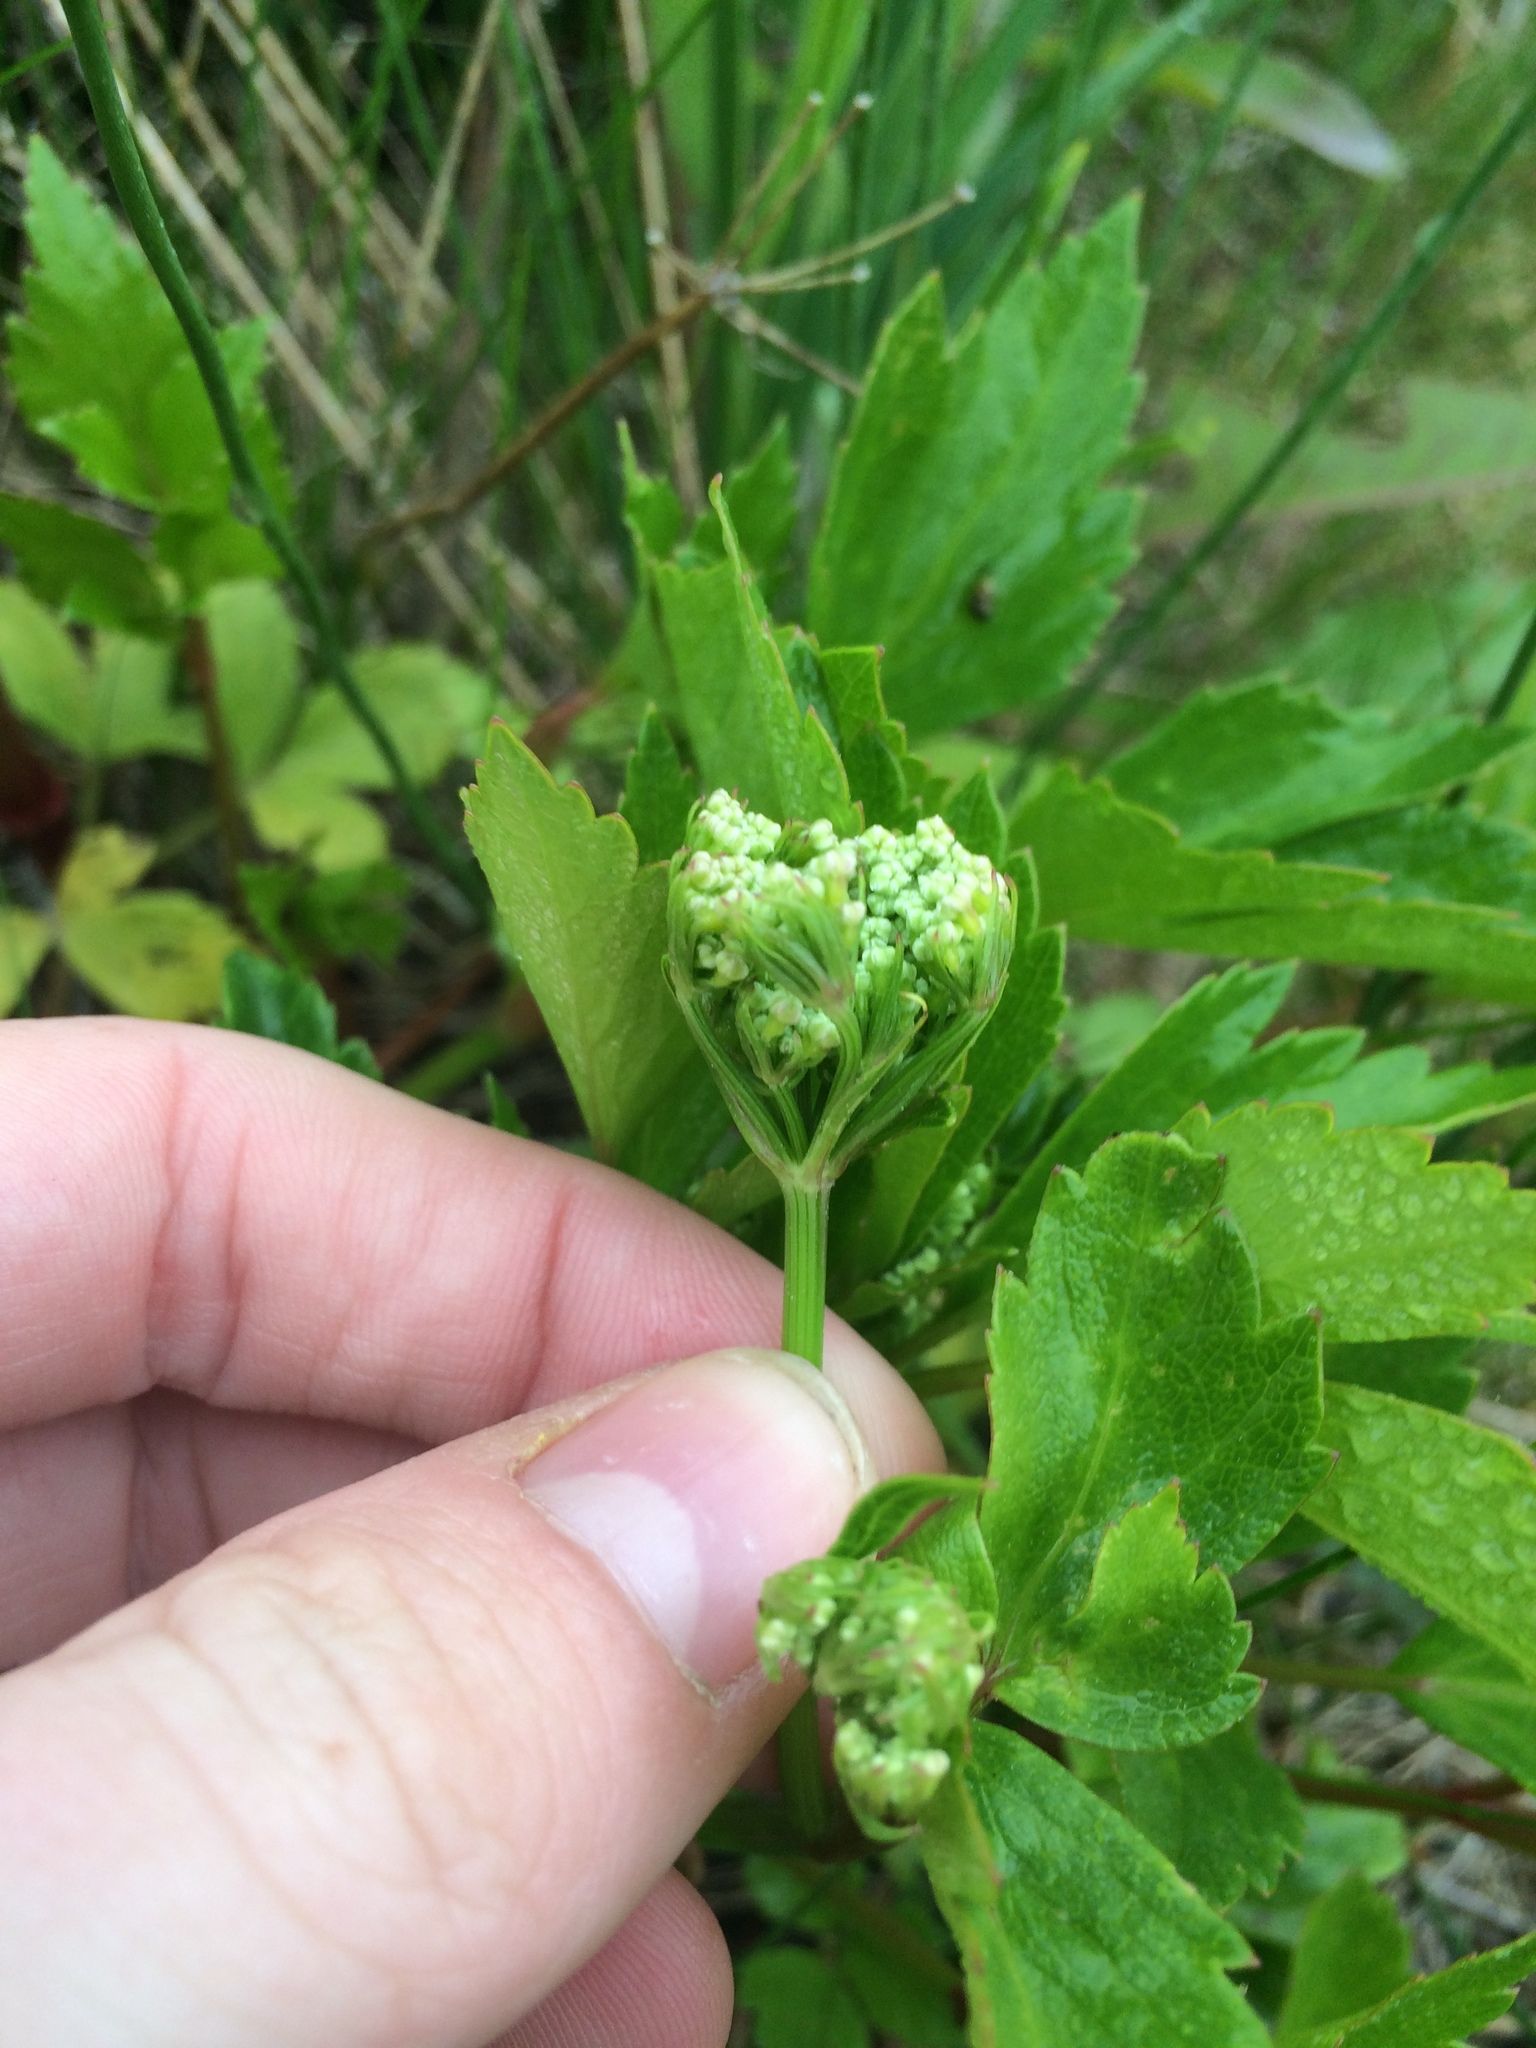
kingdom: Plantae
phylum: Tracheophyta
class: Magnoliopsida
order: Apiales
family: Apiaceae
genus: Ligusticum
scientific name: Ligusticum scothicum
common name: Beach lovage
